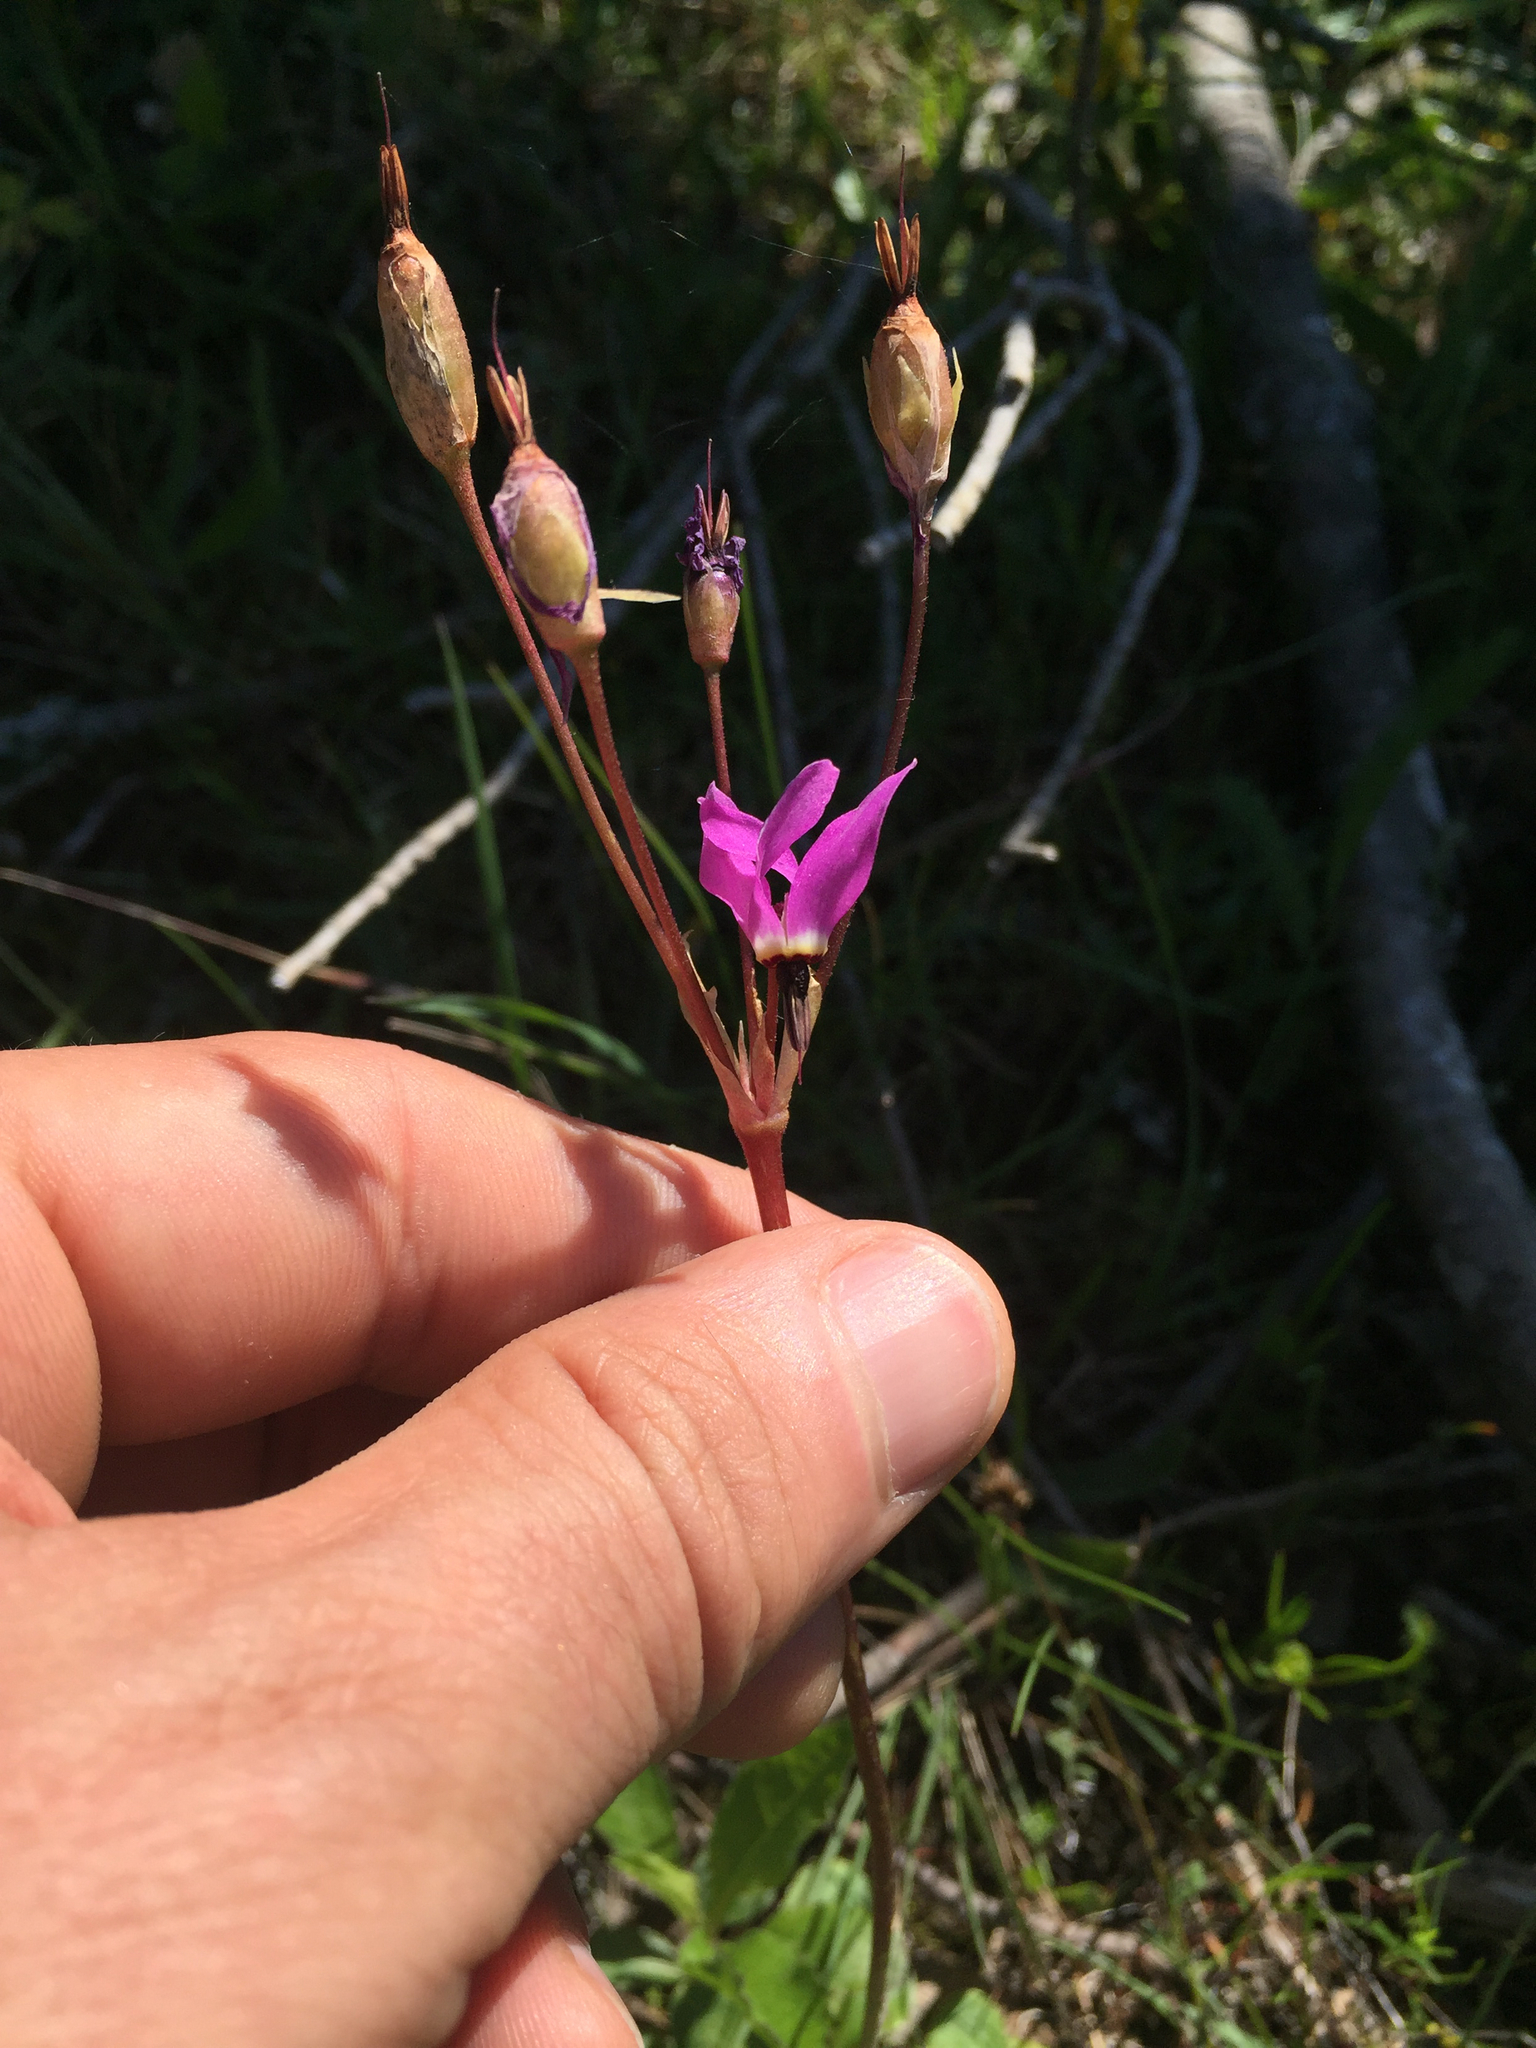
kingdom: Plantae
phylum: Tracheophyta
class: Magnoliopsida
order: Ericales
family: Primulaceae
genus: Dodecatheon
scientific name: Dodecatheon hendersonii
